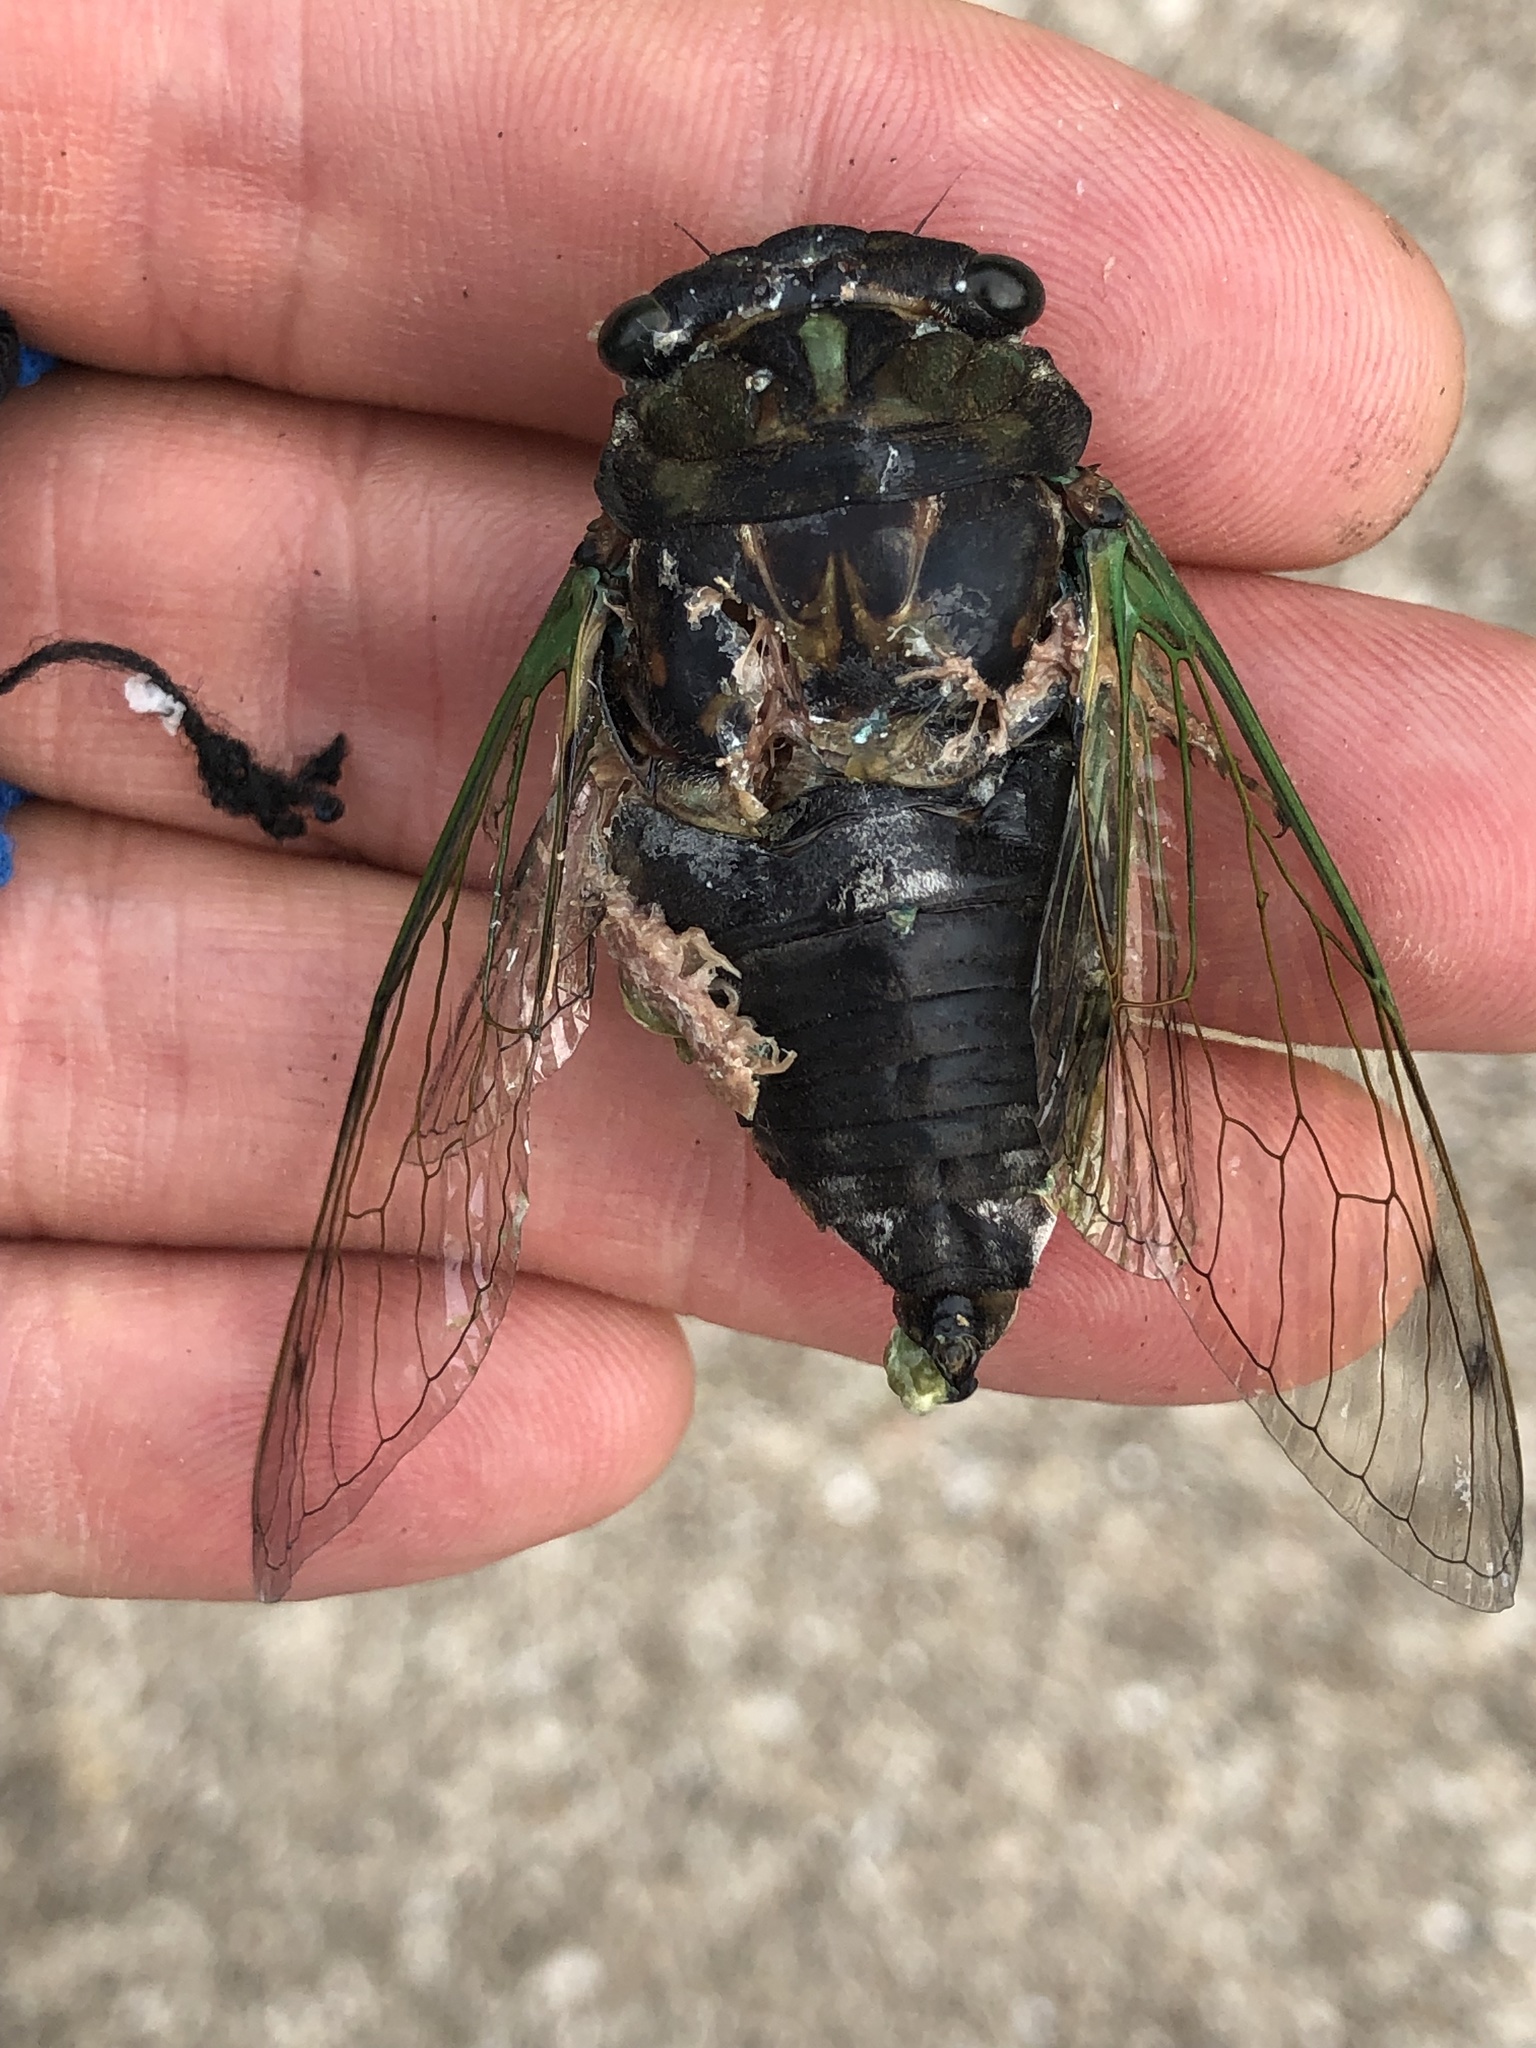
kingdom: Animalia
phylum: Arthropoda
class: Insecta
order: Hemiptera
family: Cicadidae
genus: Neotibicen
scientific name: Neotibicen tibicen
